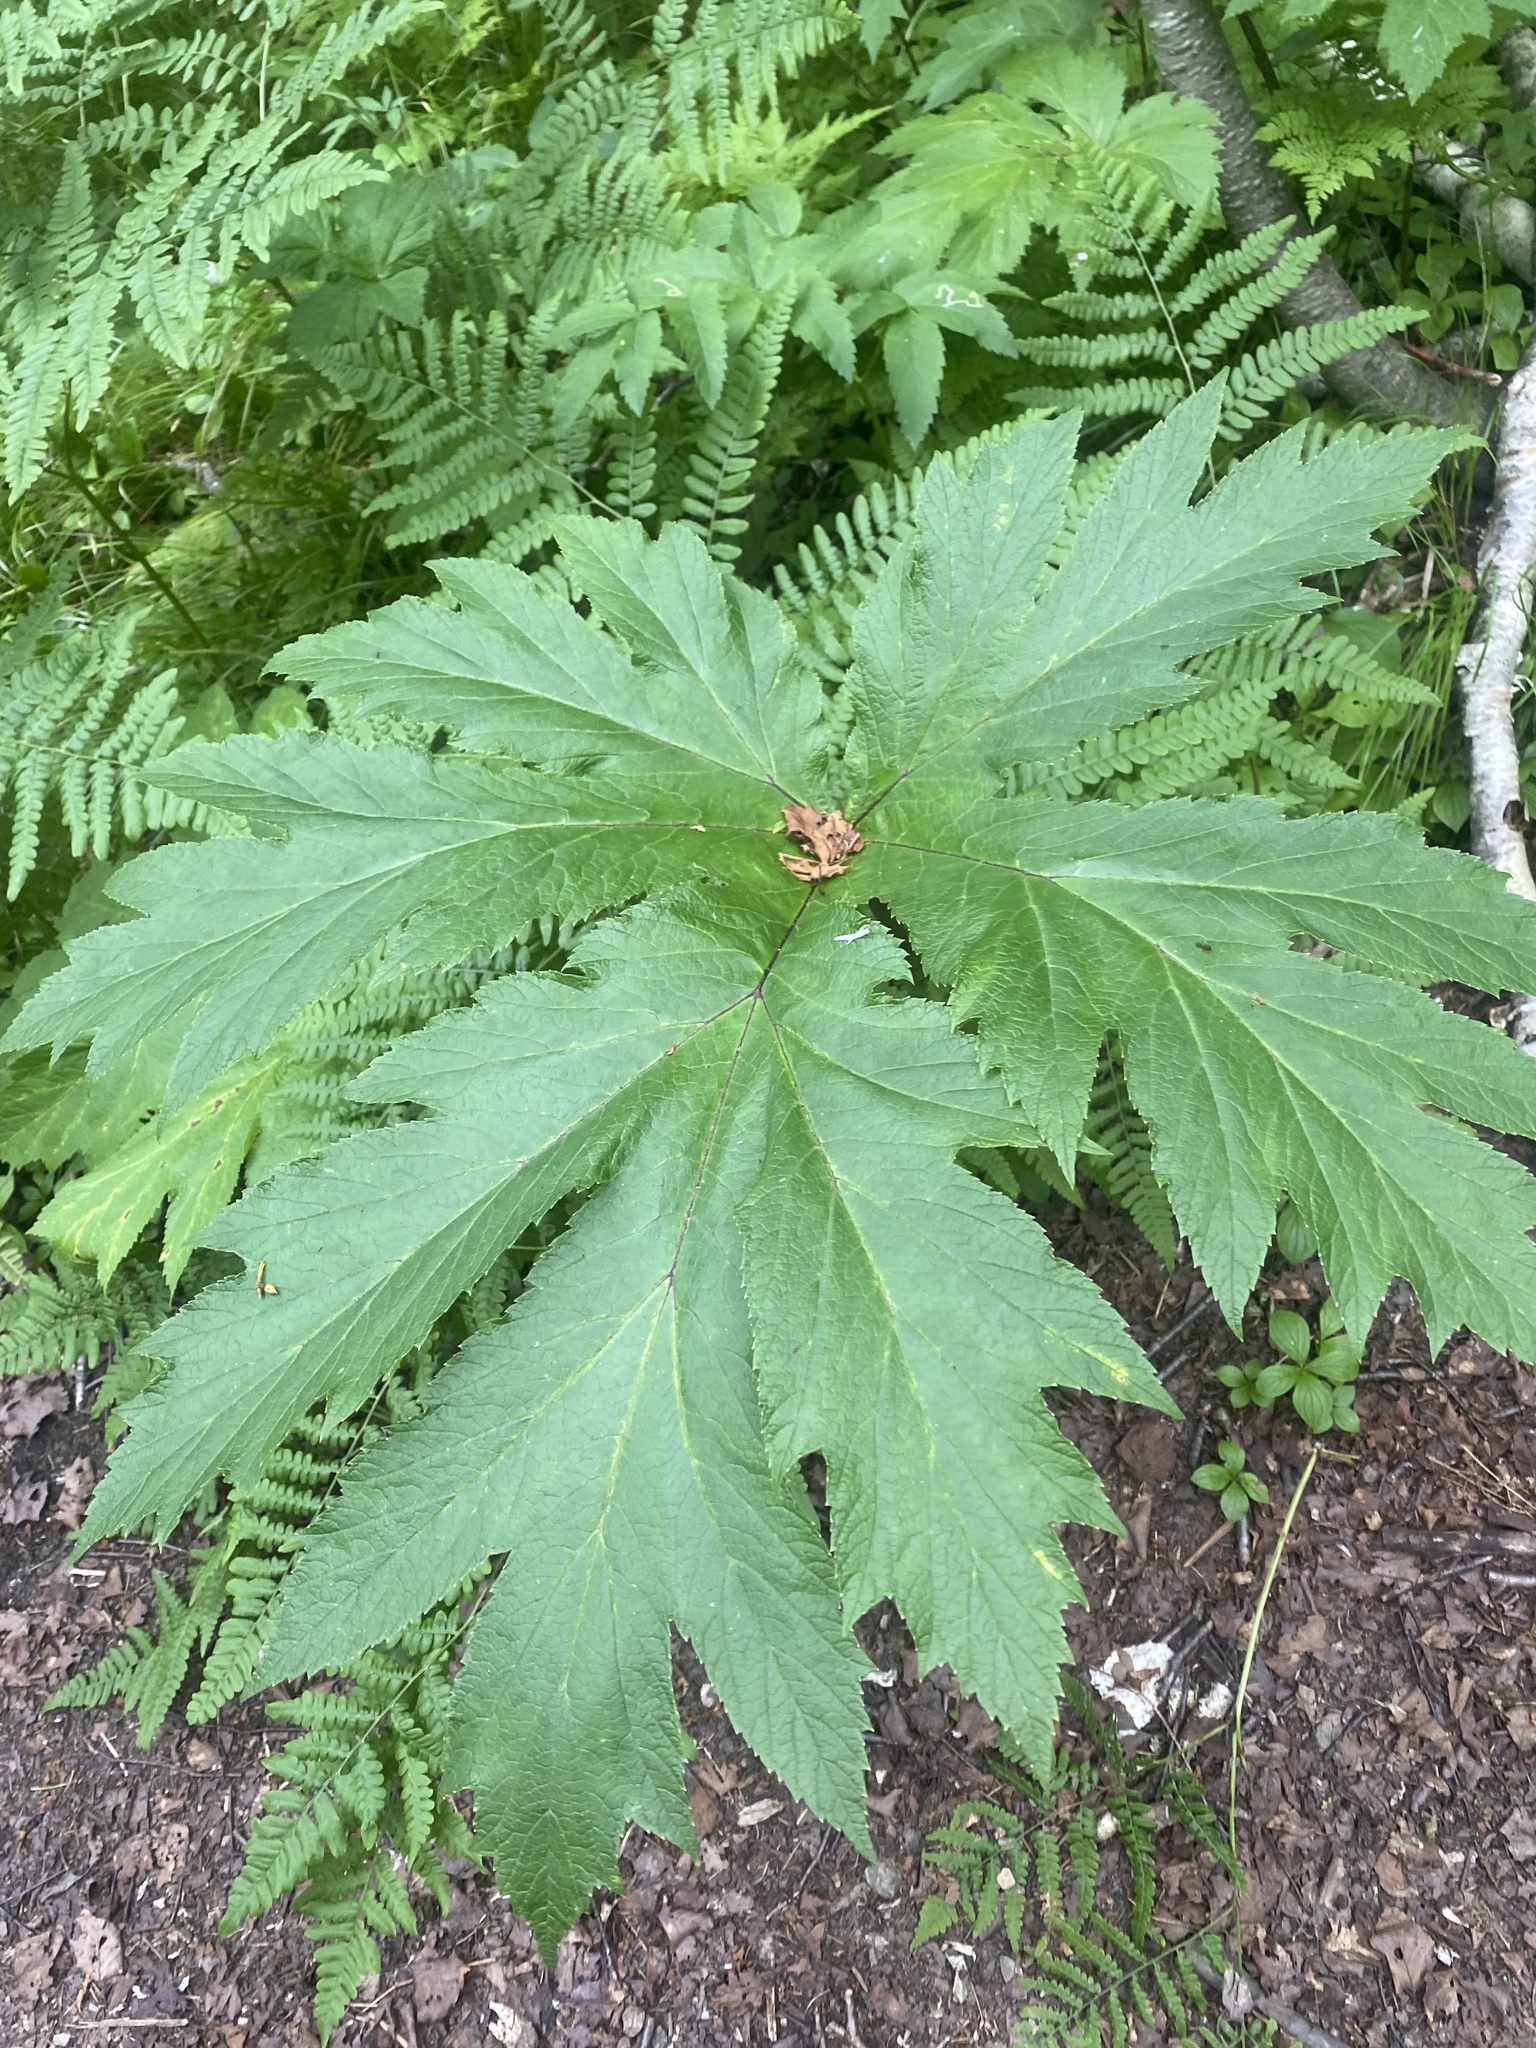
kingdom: Plantae
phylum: Tracheophyta
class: Magnoliopsida
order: Apiales
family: Apiaceae
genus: Heracleum
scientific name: Heracleum maximum
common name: American cow parsnip
